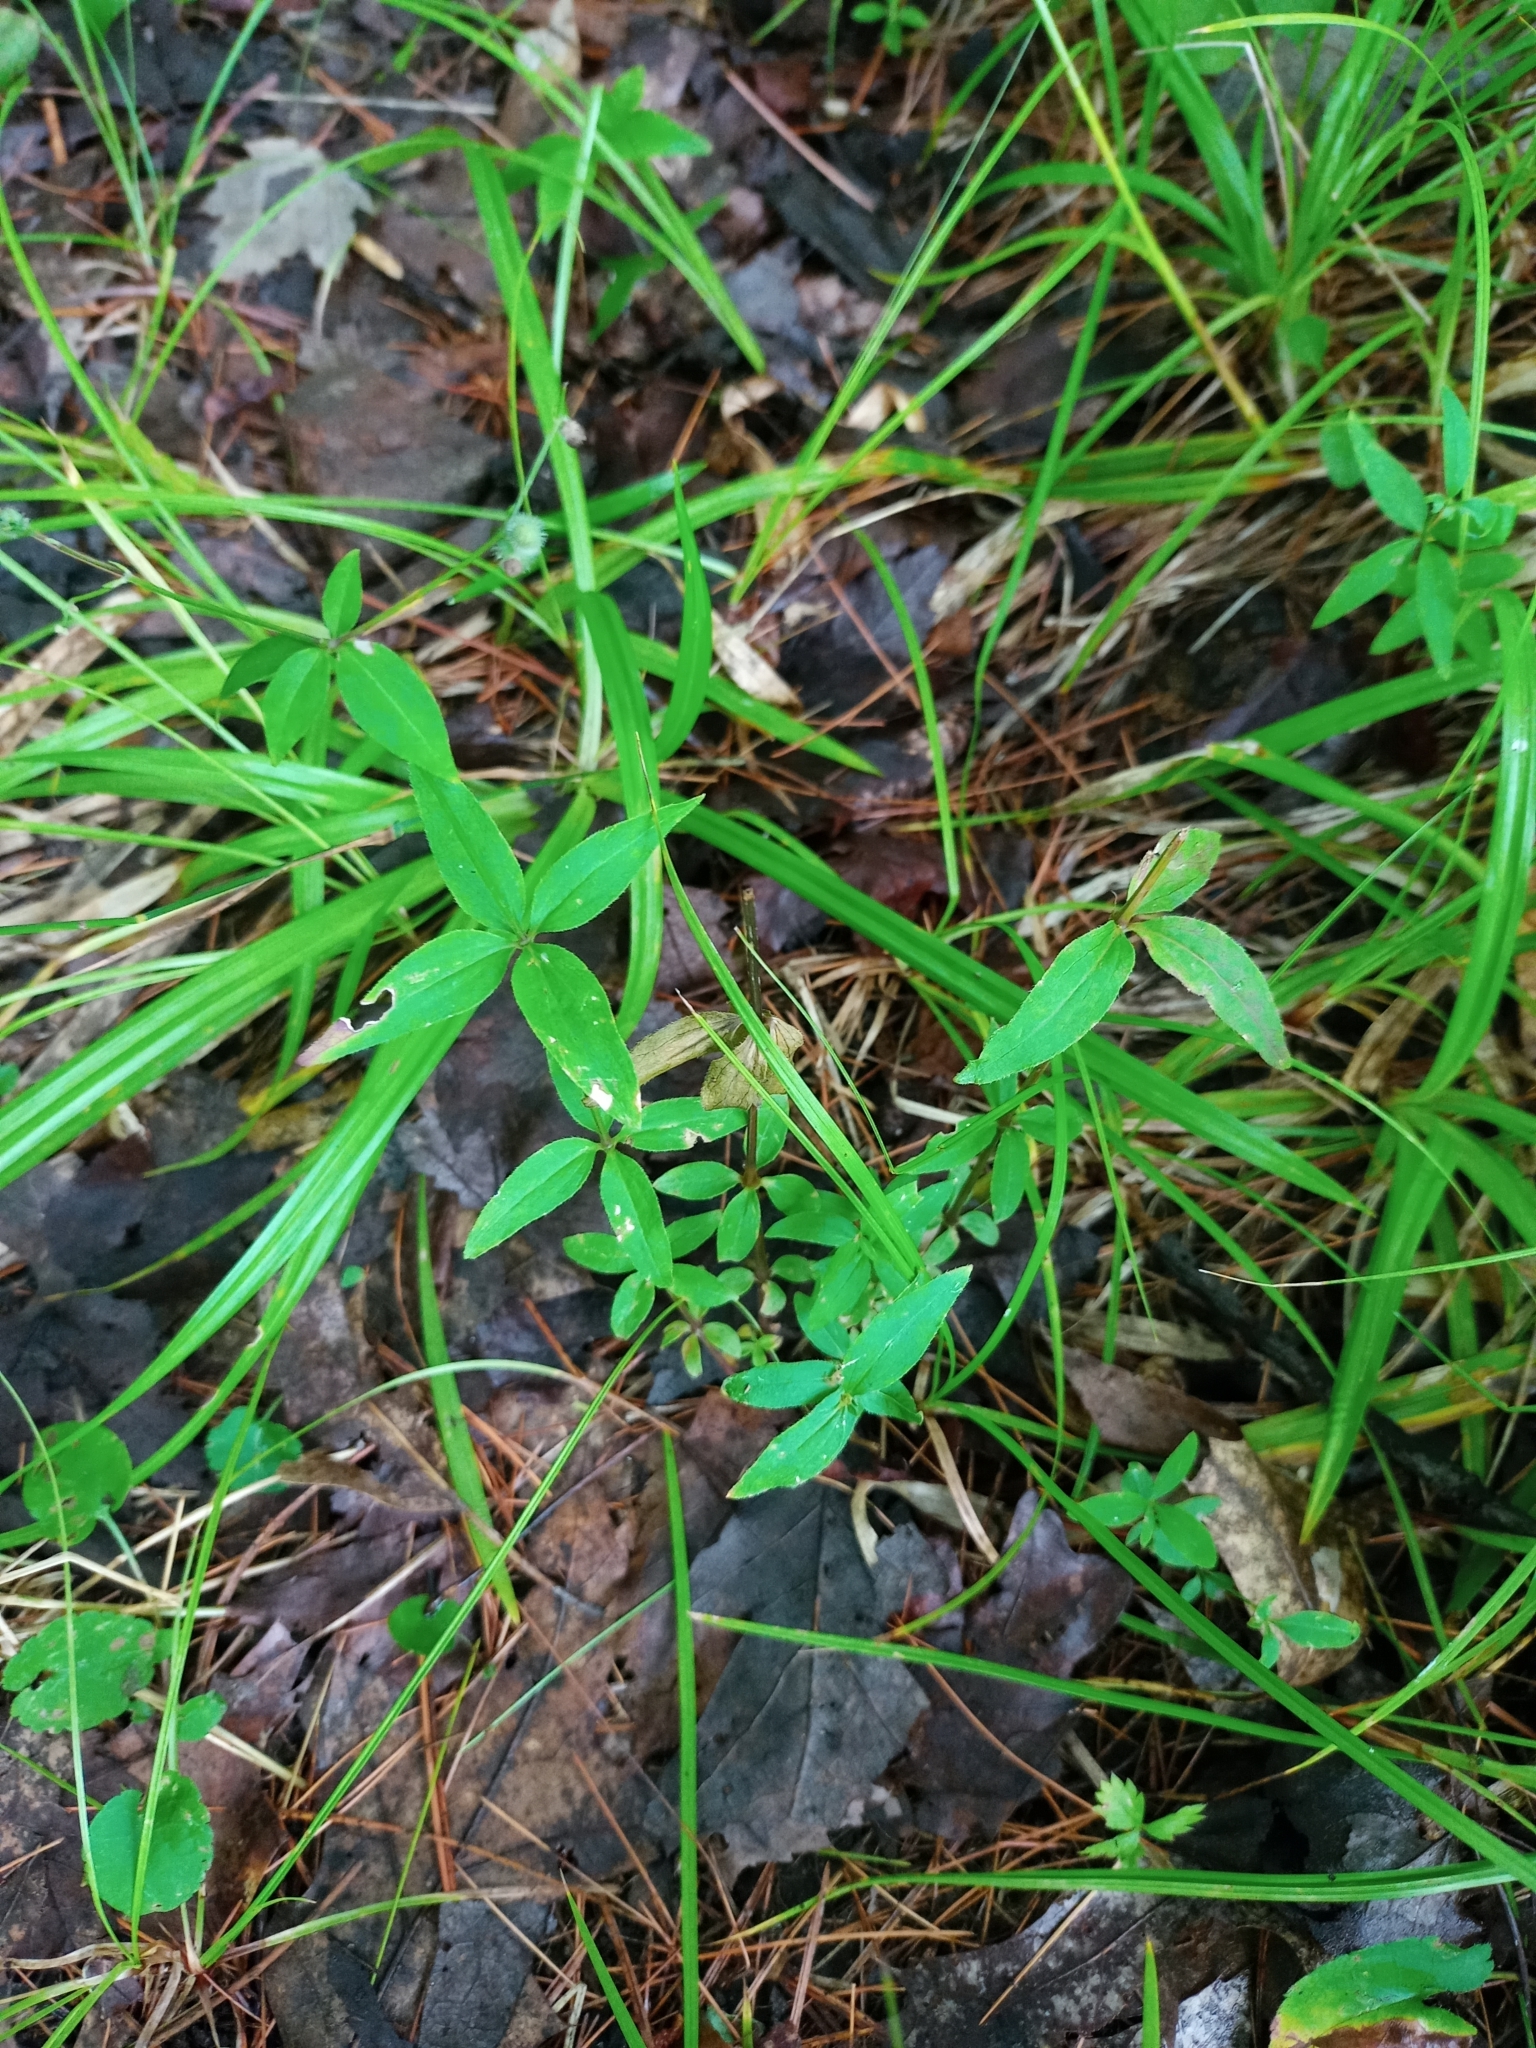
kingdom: Plantae
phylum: Tracheophyta
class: Magnoliopsida
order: Gentianales
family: Rubiaceae
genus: Galium
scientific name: Galium lanceolatum
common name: Lance-leaved wild licorice
